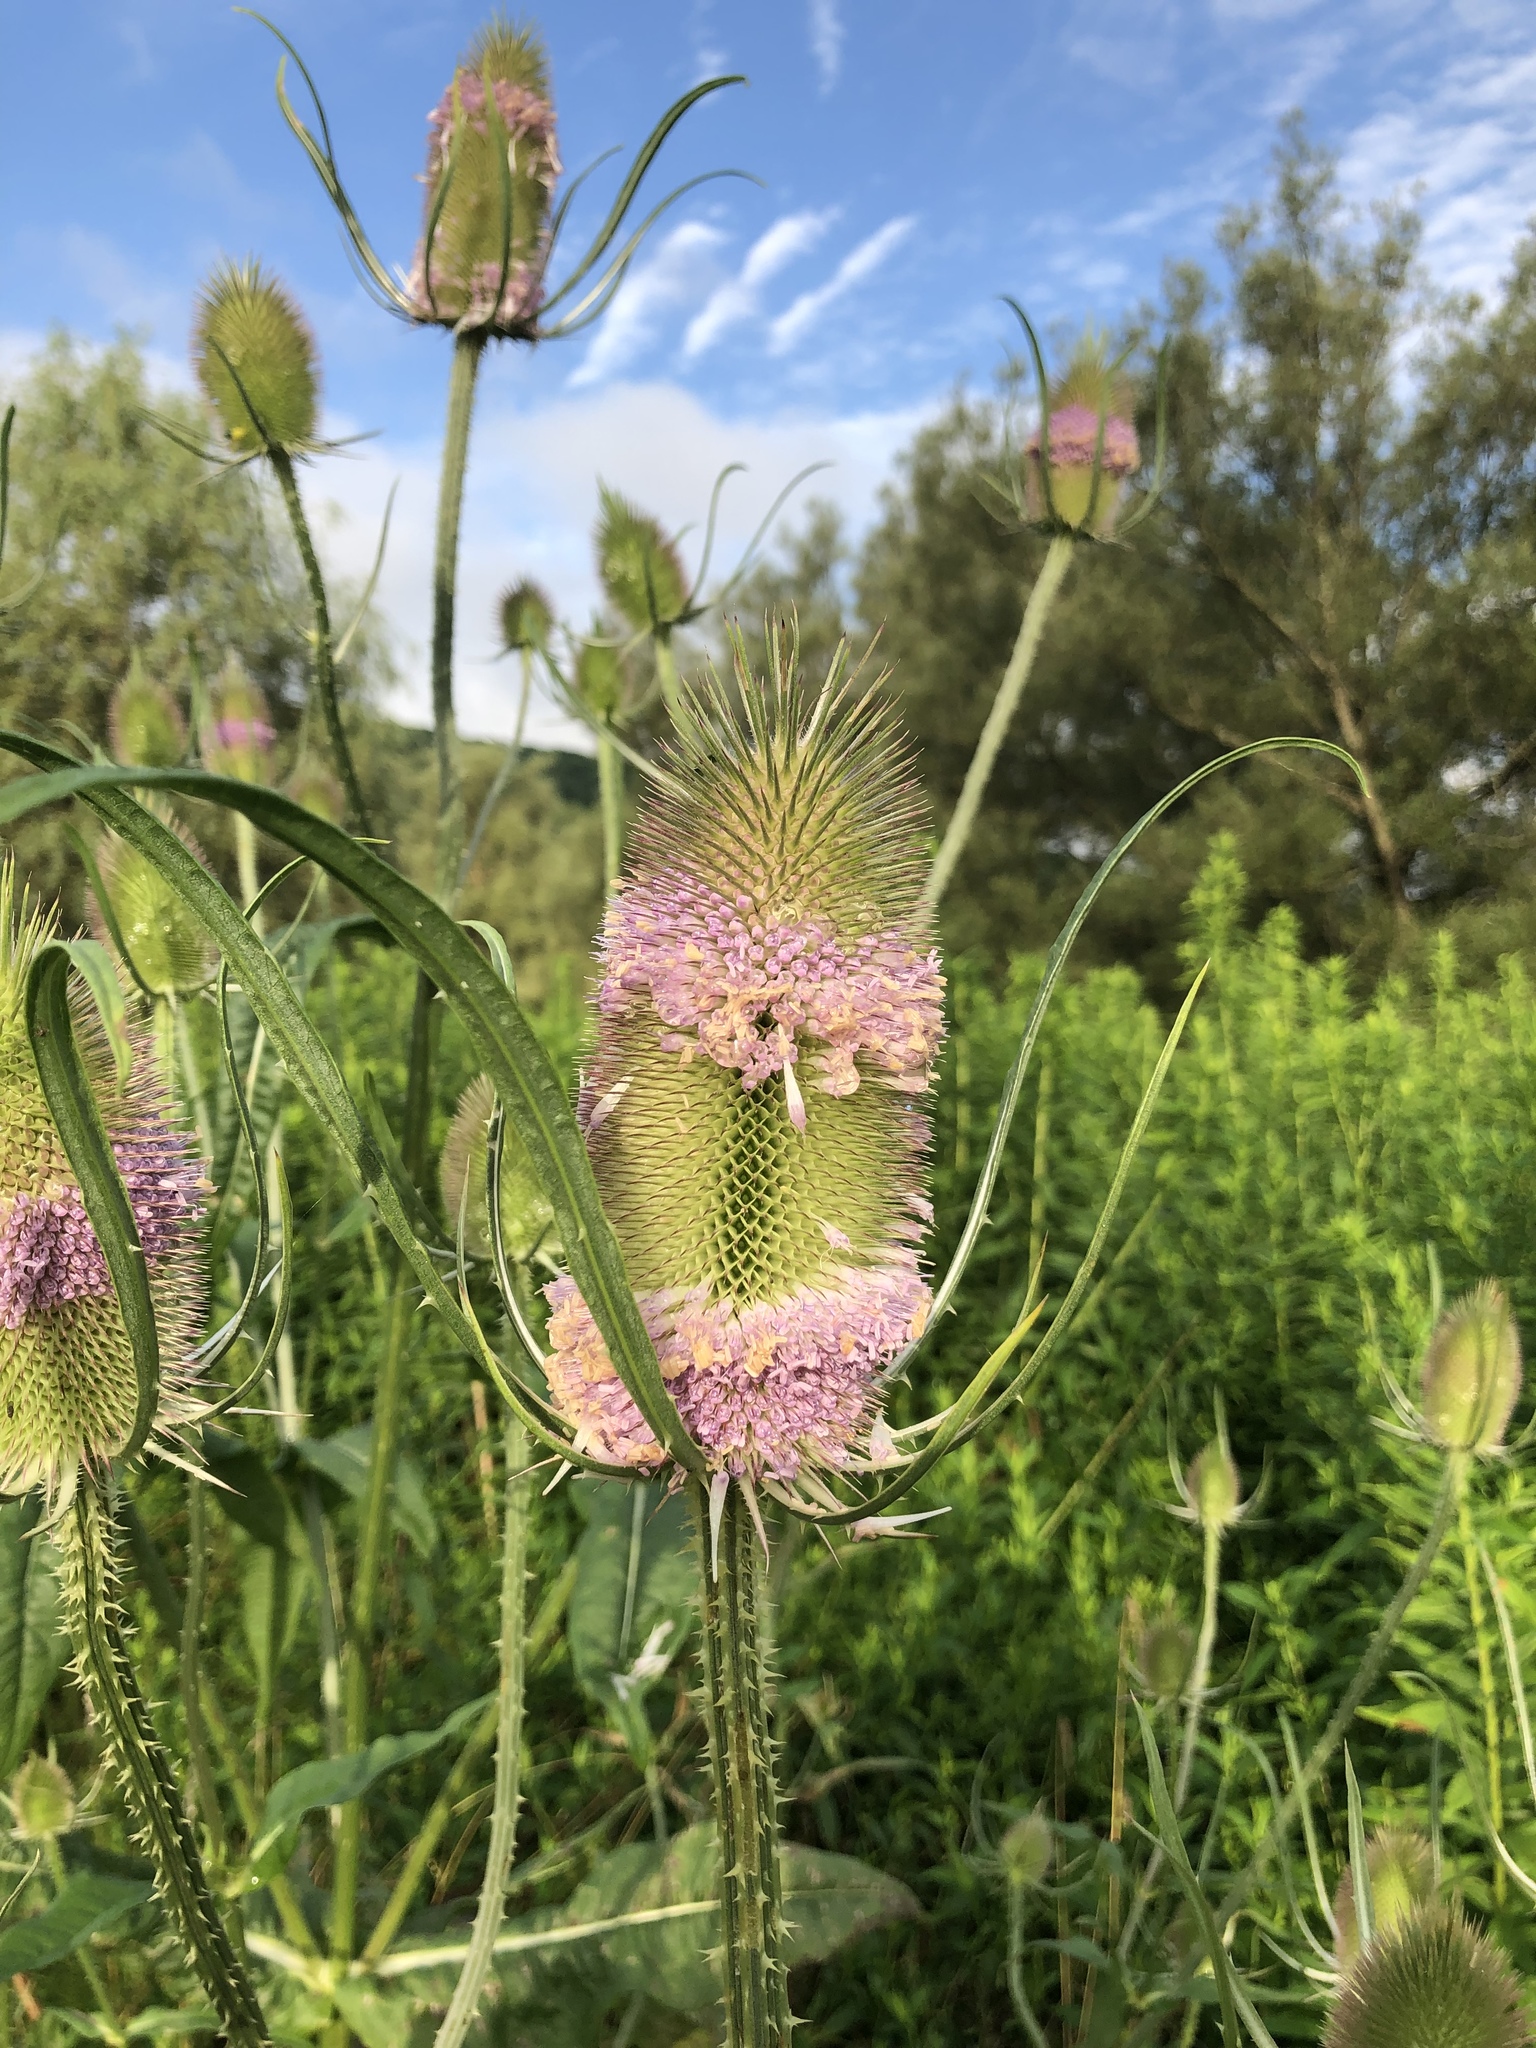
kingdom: Plantae
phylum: Tracheophyta
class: Magnoliopsida
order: Dipsacales
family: Caprifoliaceae
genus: Dipsacus
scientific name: Dipsacus fullonum
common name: Teasel
